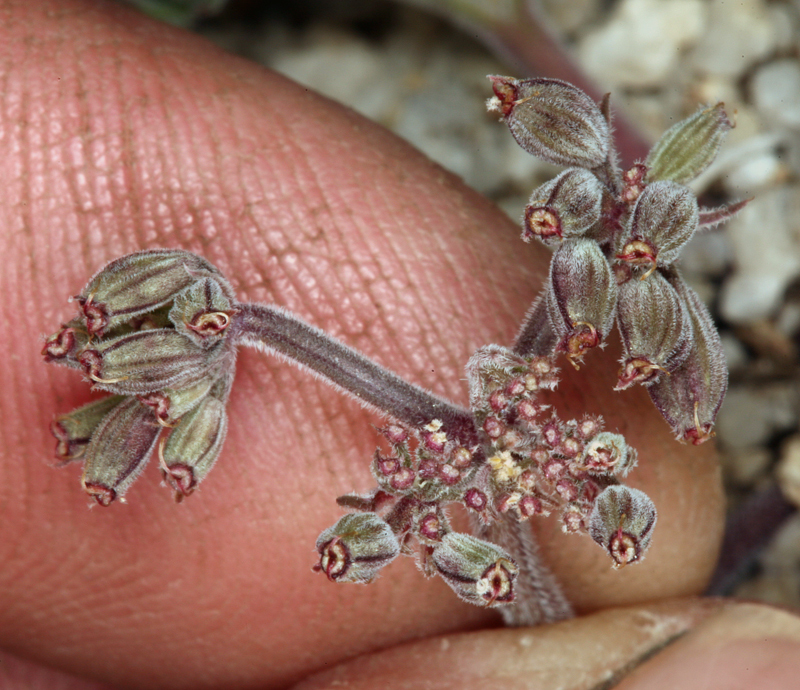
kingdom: Plantae
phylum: Tracheophyta
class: Magnoliopsida
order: Apiales
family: Apiaceae
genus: Lomatium
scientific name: Lomatium foeniculaceum
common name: Desert-parsley
